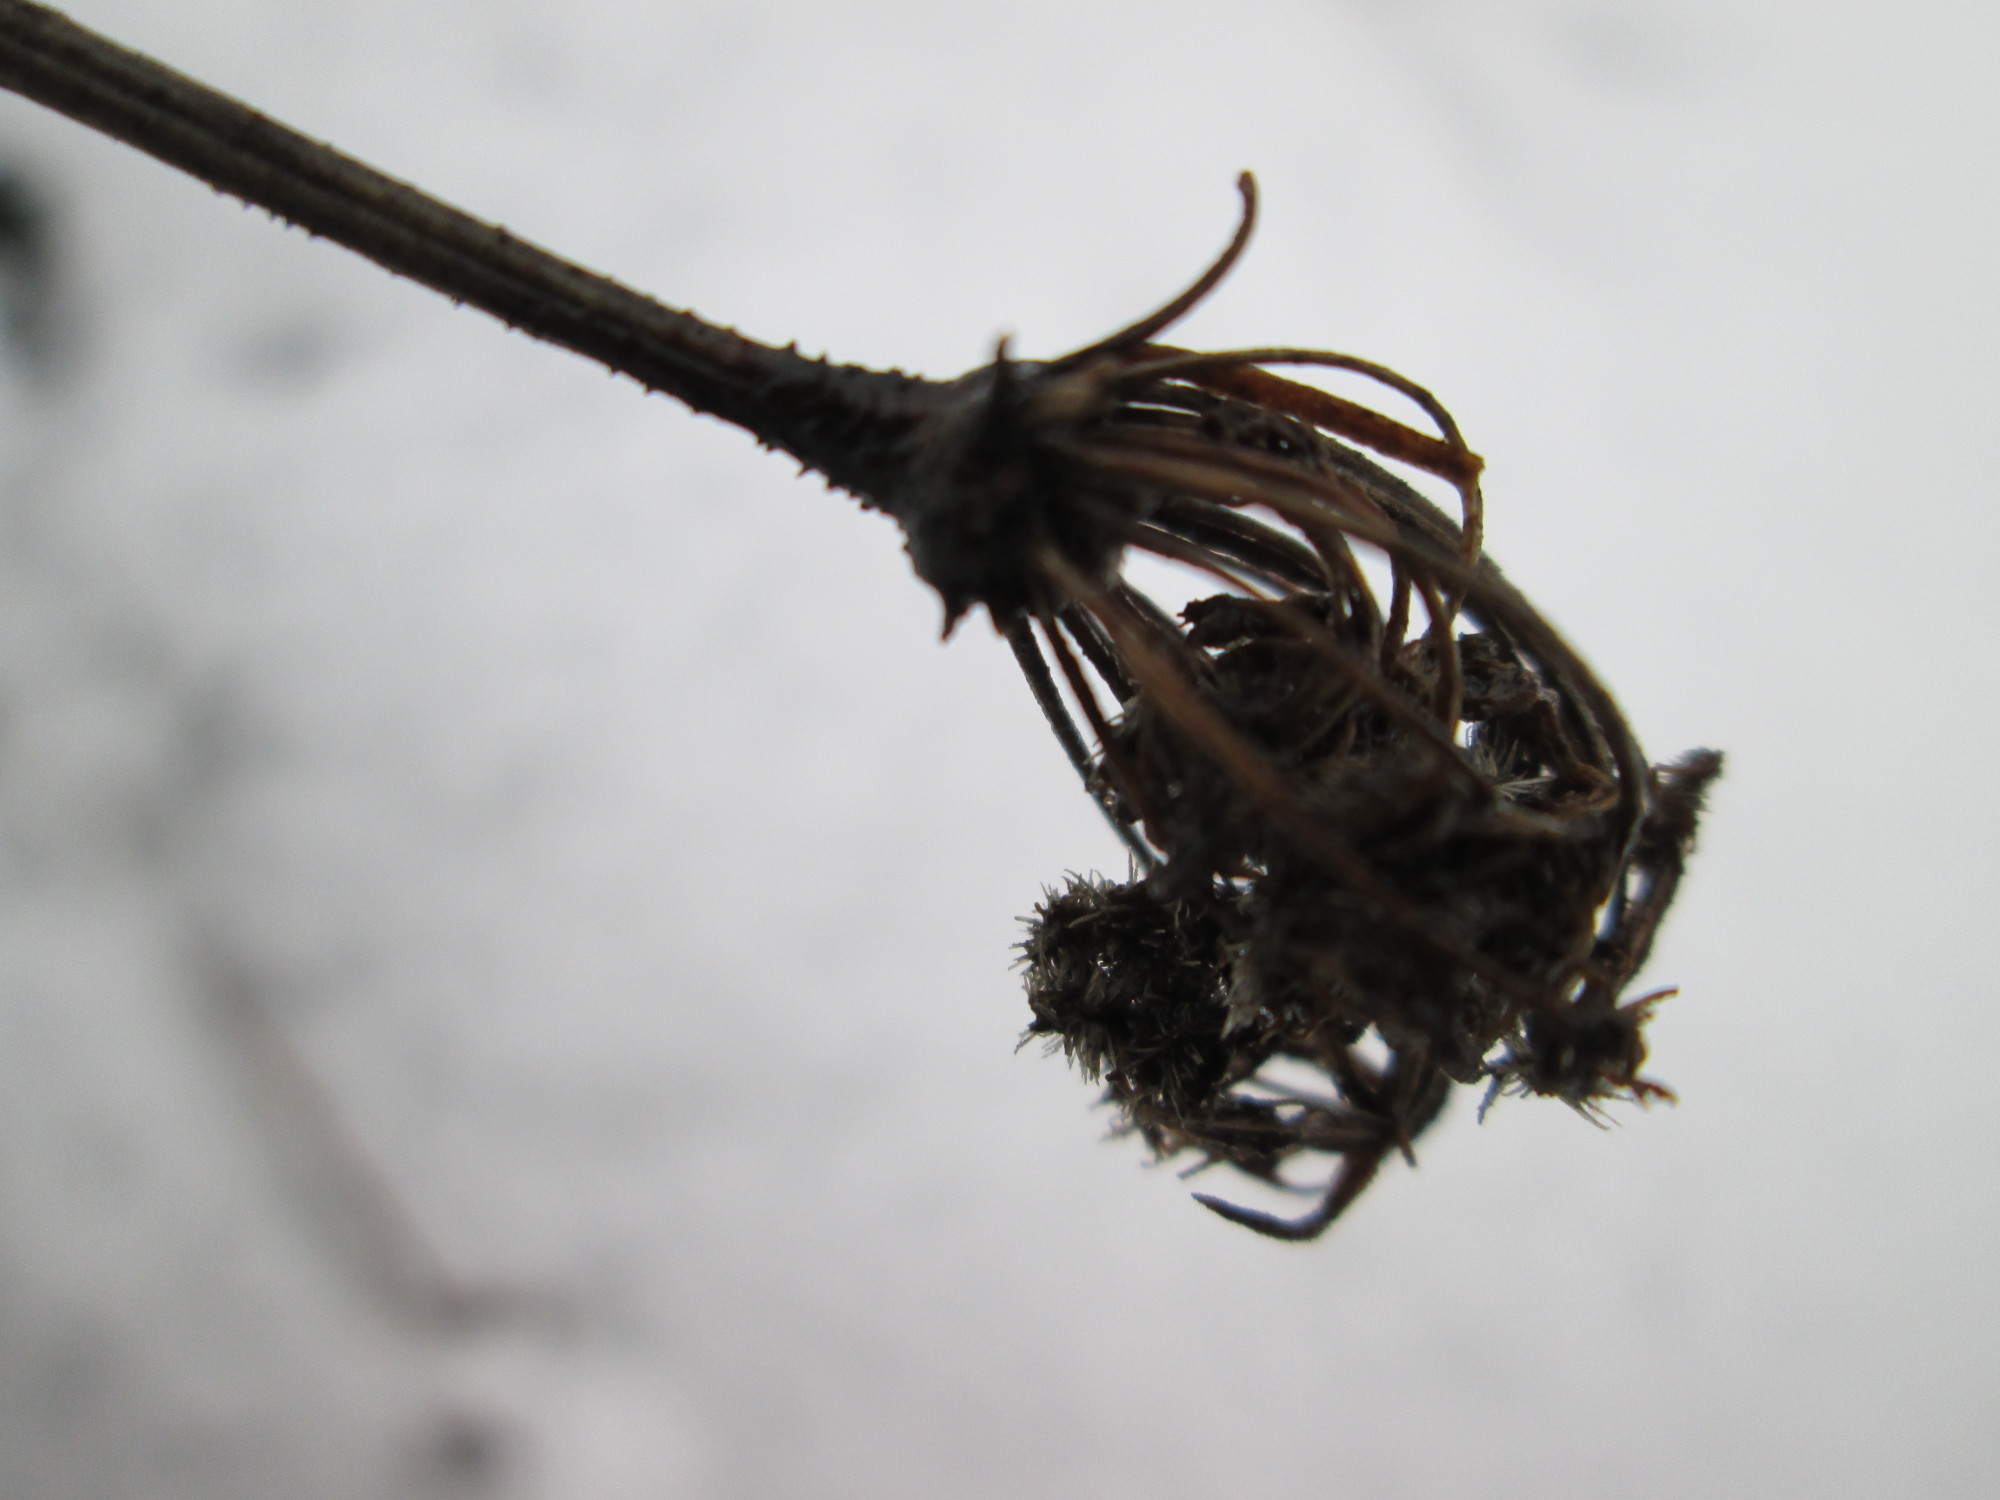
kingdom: Plantae
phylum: Tracheophyta
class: Magnoliopsida
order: Apiales
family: Apiaceae
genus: Daucus
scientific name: Daucus carota
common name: Wild carrot
